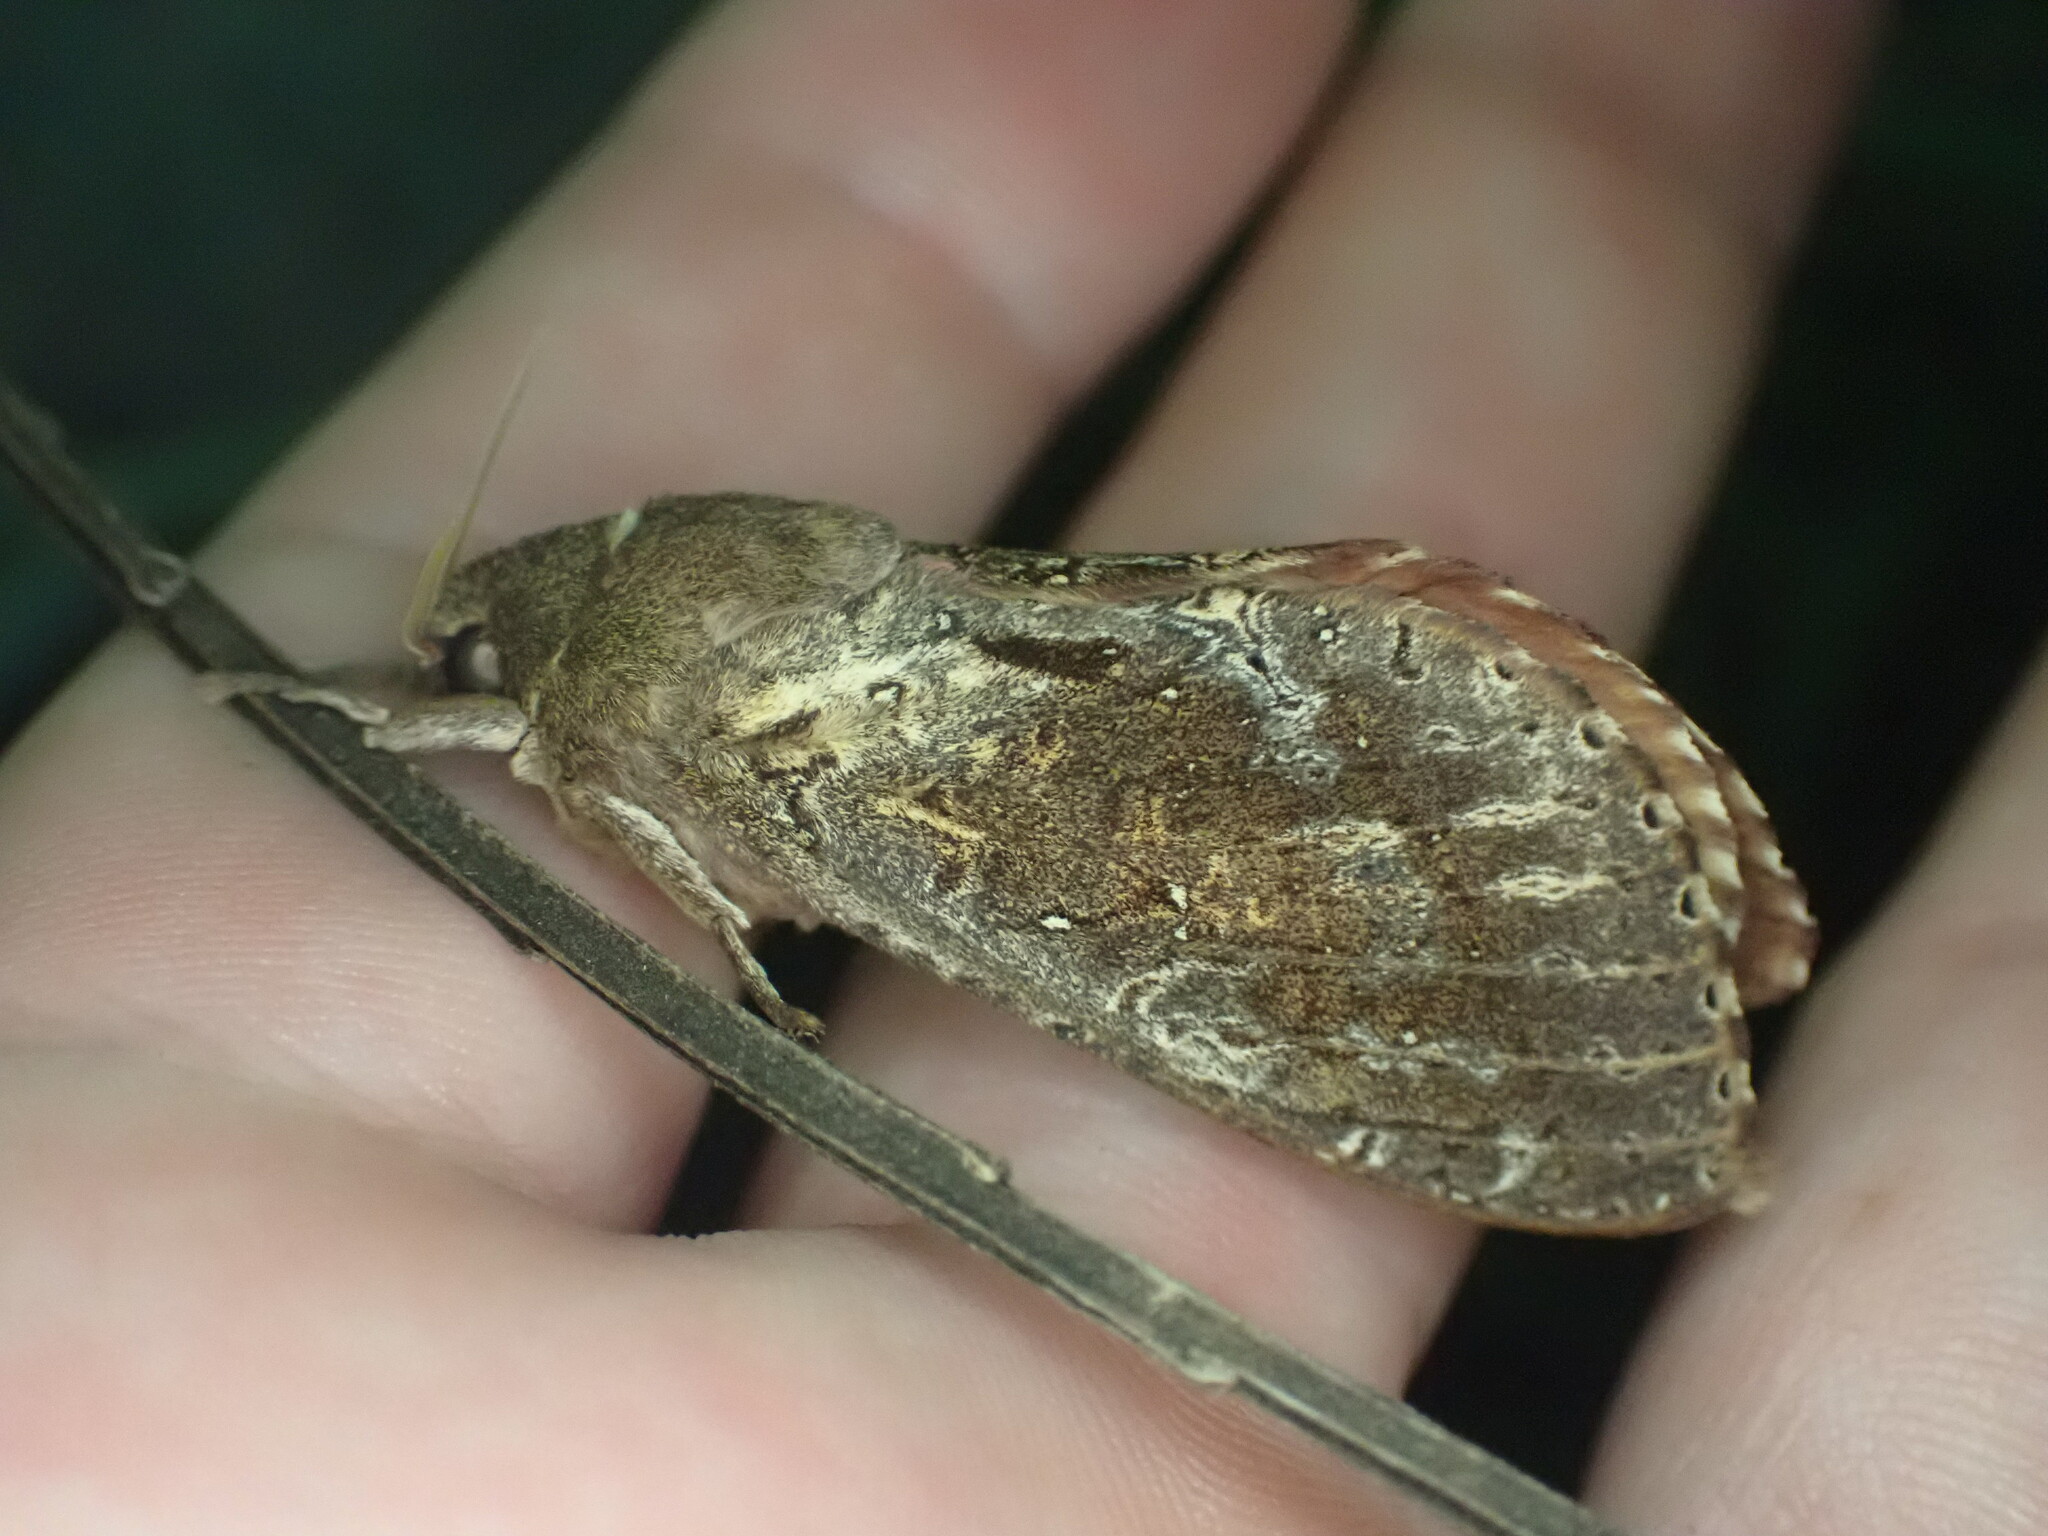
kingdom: Animalia
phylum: Arthropoda
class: Insecta
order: Lepidoptera
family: Hepialidae
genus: Dumbletonius
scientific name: Dumbletonius unimaculata
